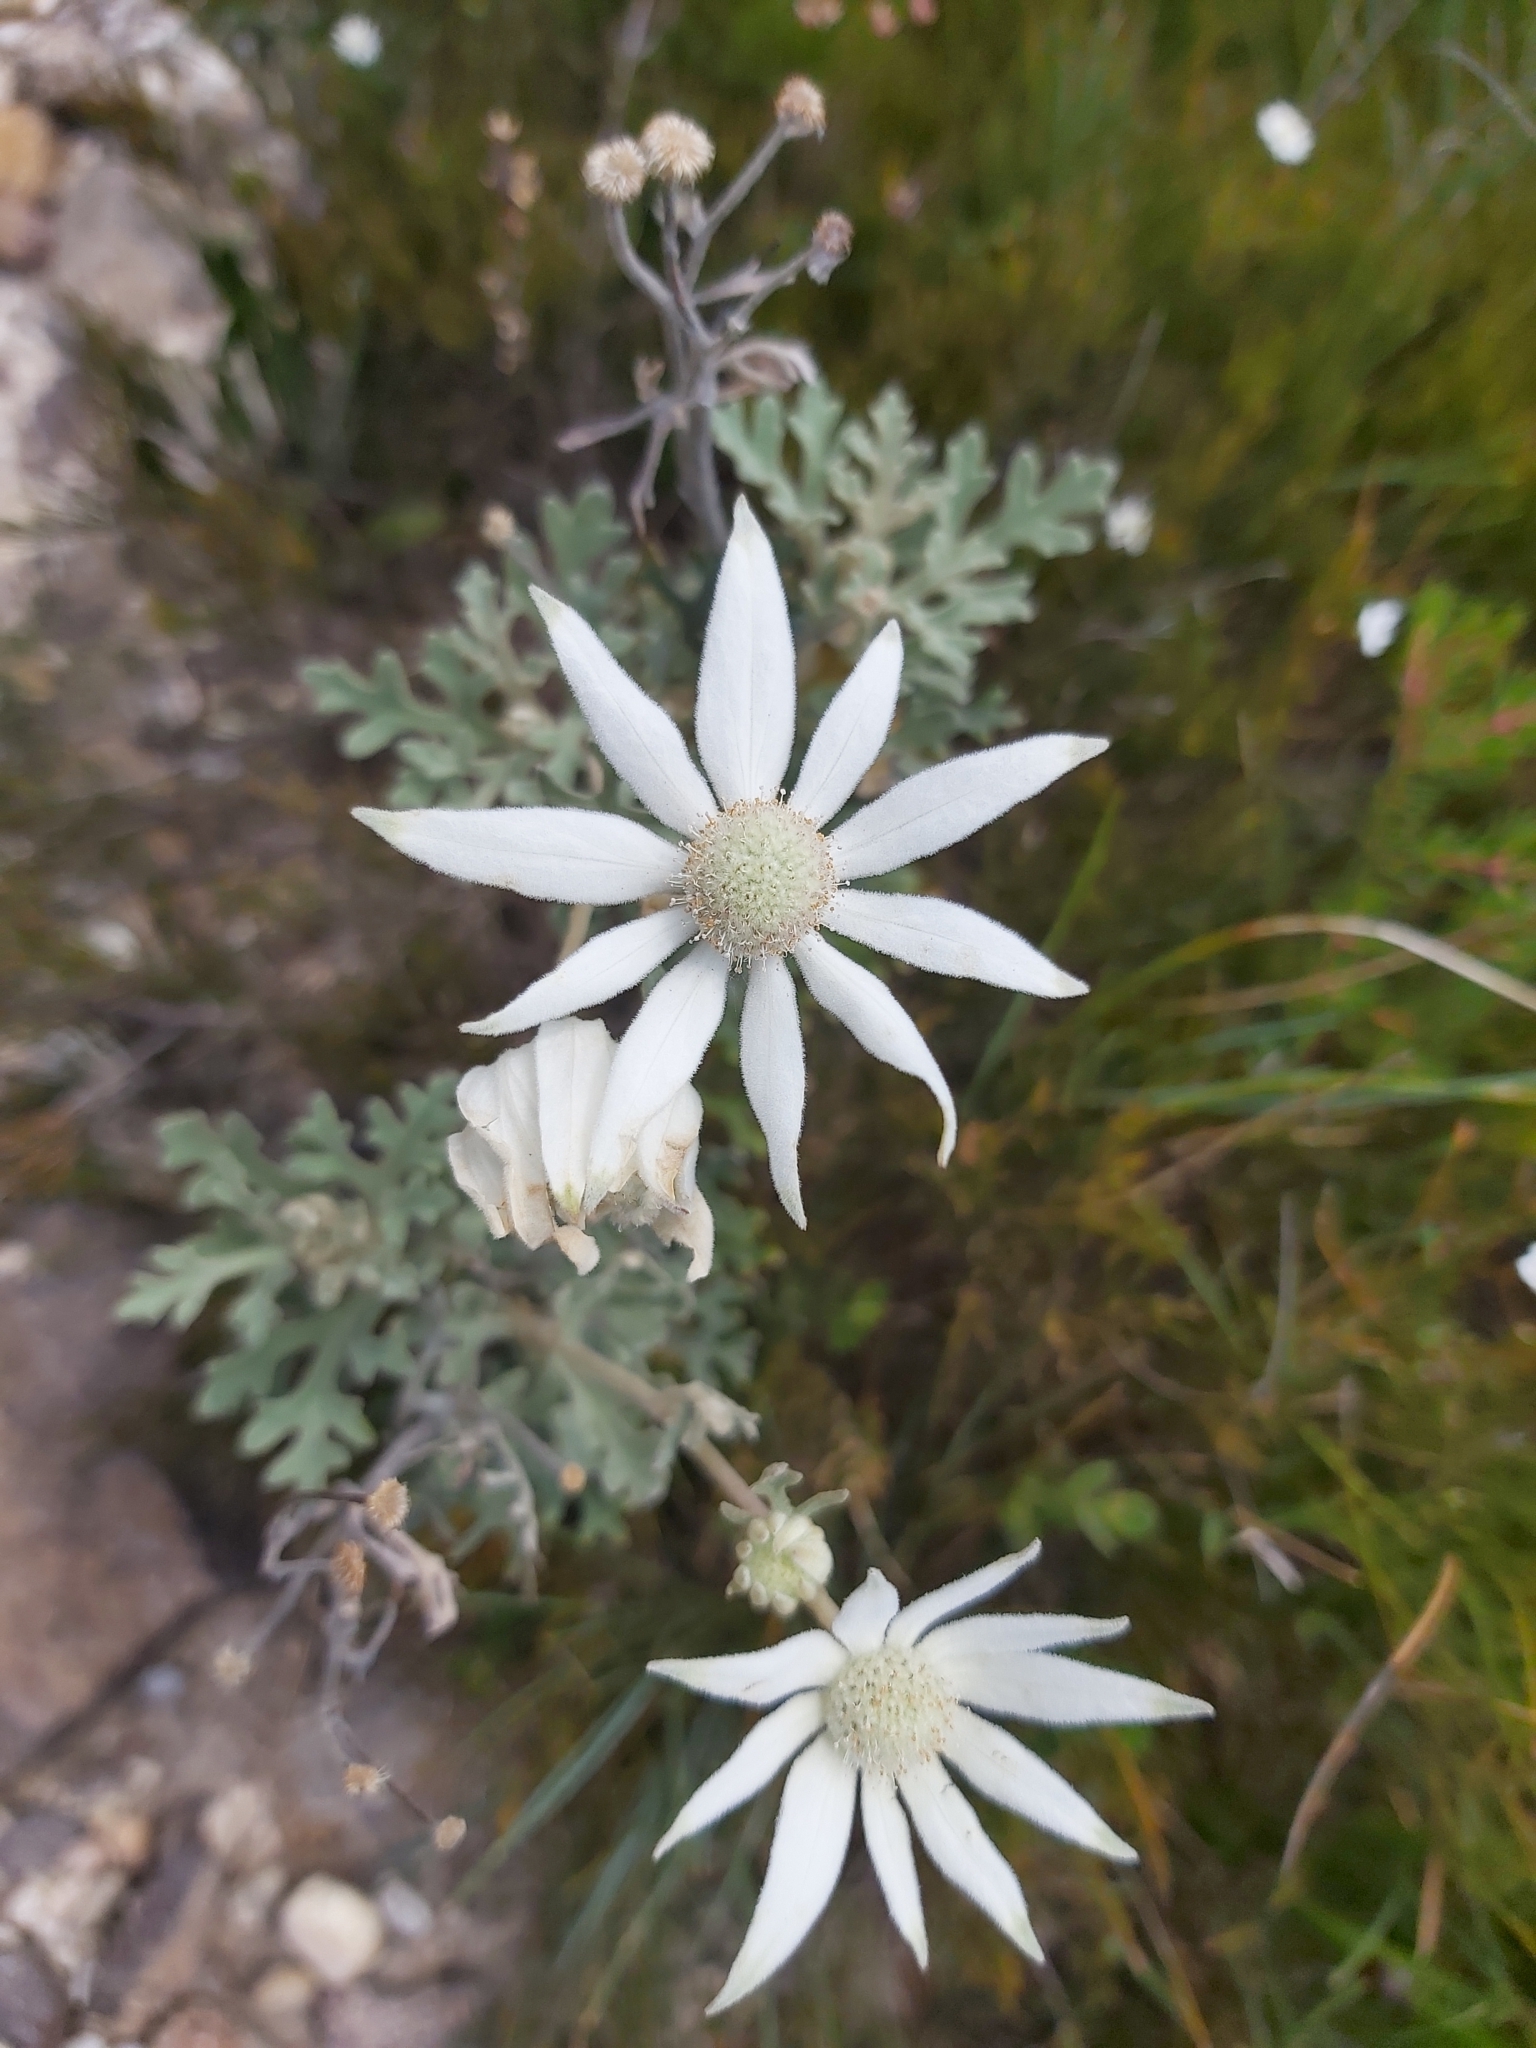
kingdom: Plantae
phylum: Tracheophyta
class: Magnoliopsida
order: Apiales
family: Apiaceae
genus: Actinotus
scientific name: Actinotus helianthi
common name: Flannel-flower
